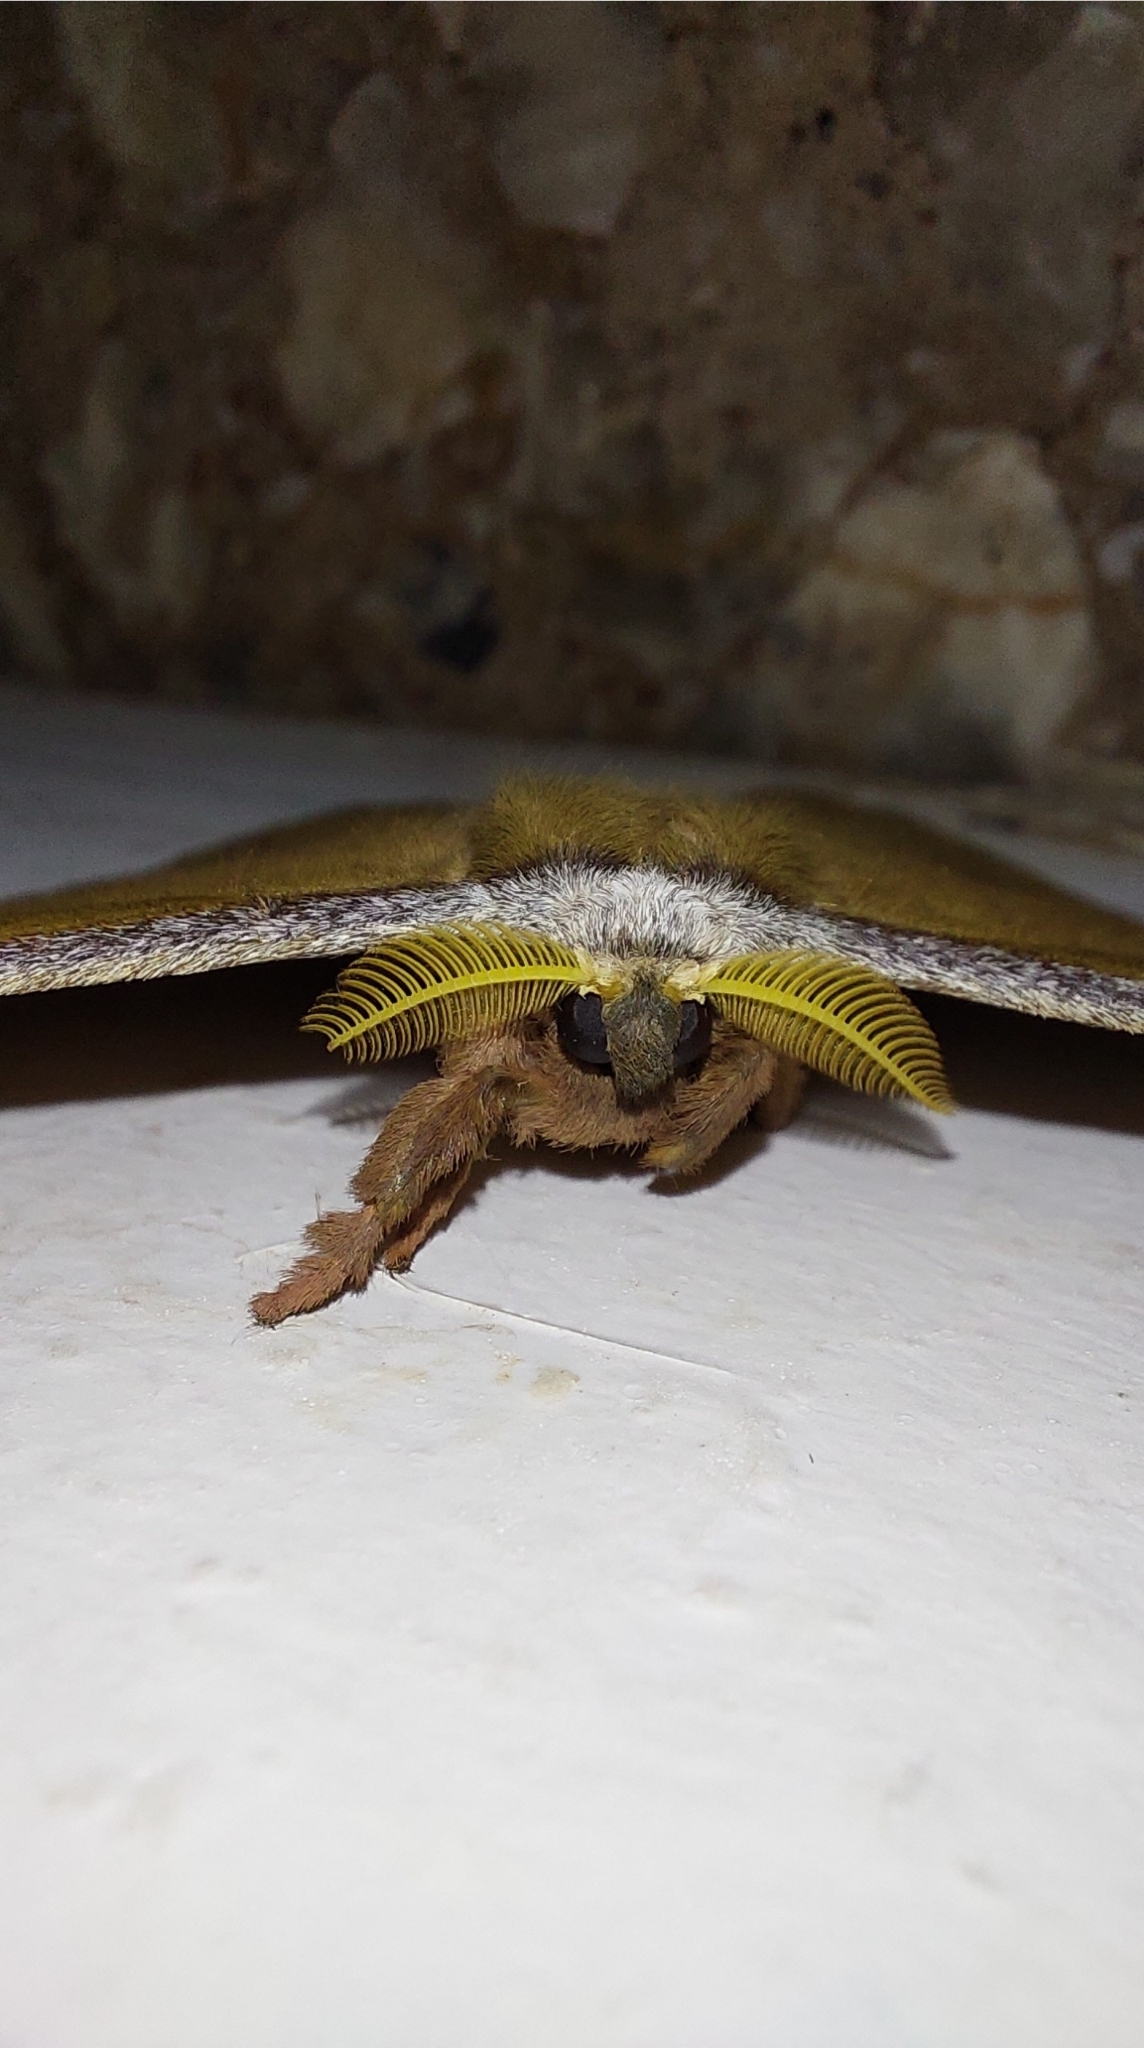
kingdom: Animalia
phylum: Arthropoda
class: Insecta
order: Lepidoptera
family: Saturniidae
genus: Copaxa
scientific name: Copaxa decrescens
